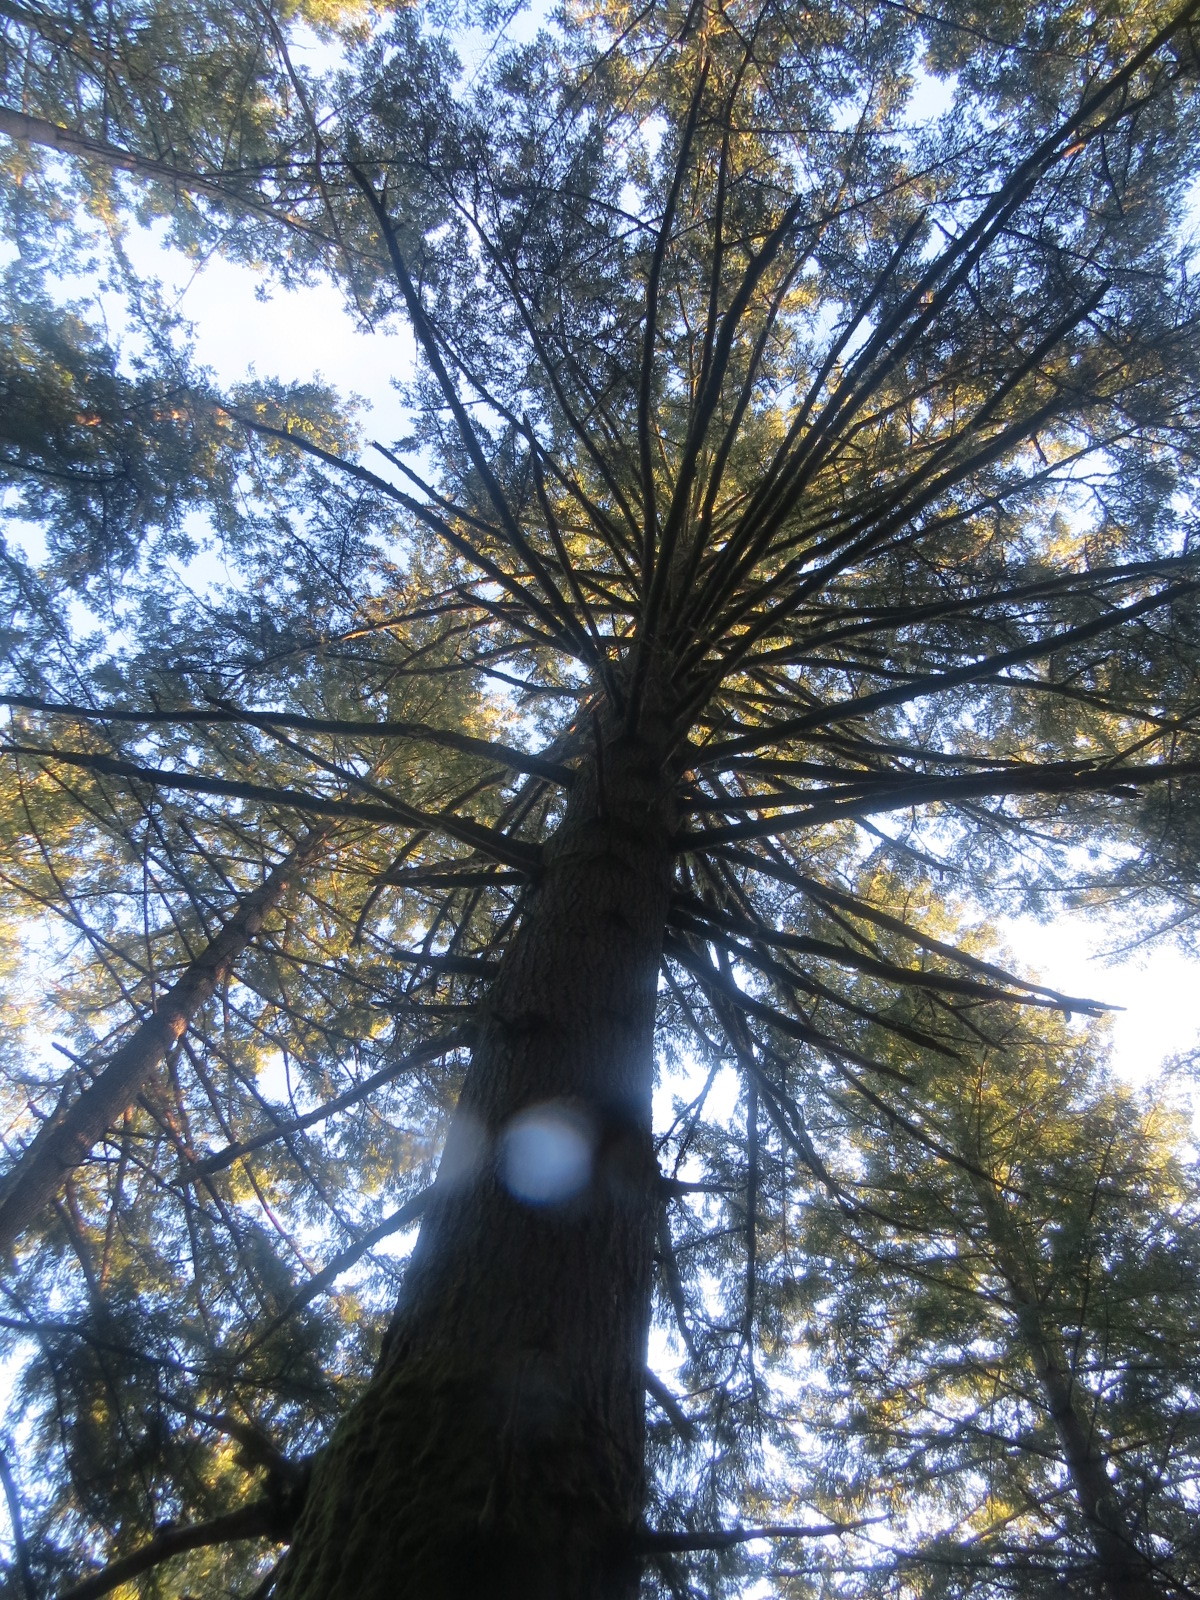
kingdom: Plantae
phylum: Tracheophyta
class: Pinopsida
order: Pinales
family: Pinaceae
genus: Pseudotsuga
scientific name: Pseudotsuga menziesii
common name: Douglas fir
